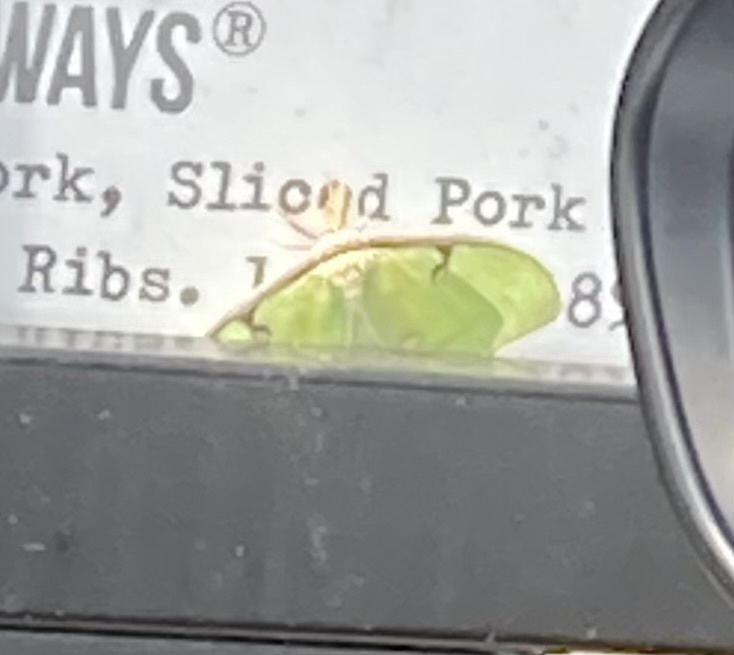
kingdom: Animalia
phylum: Arthropoda
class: Insecta
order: Lepidoptera
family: Saturniidae
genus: Actias
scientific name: Actias luna
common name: Luna moth
